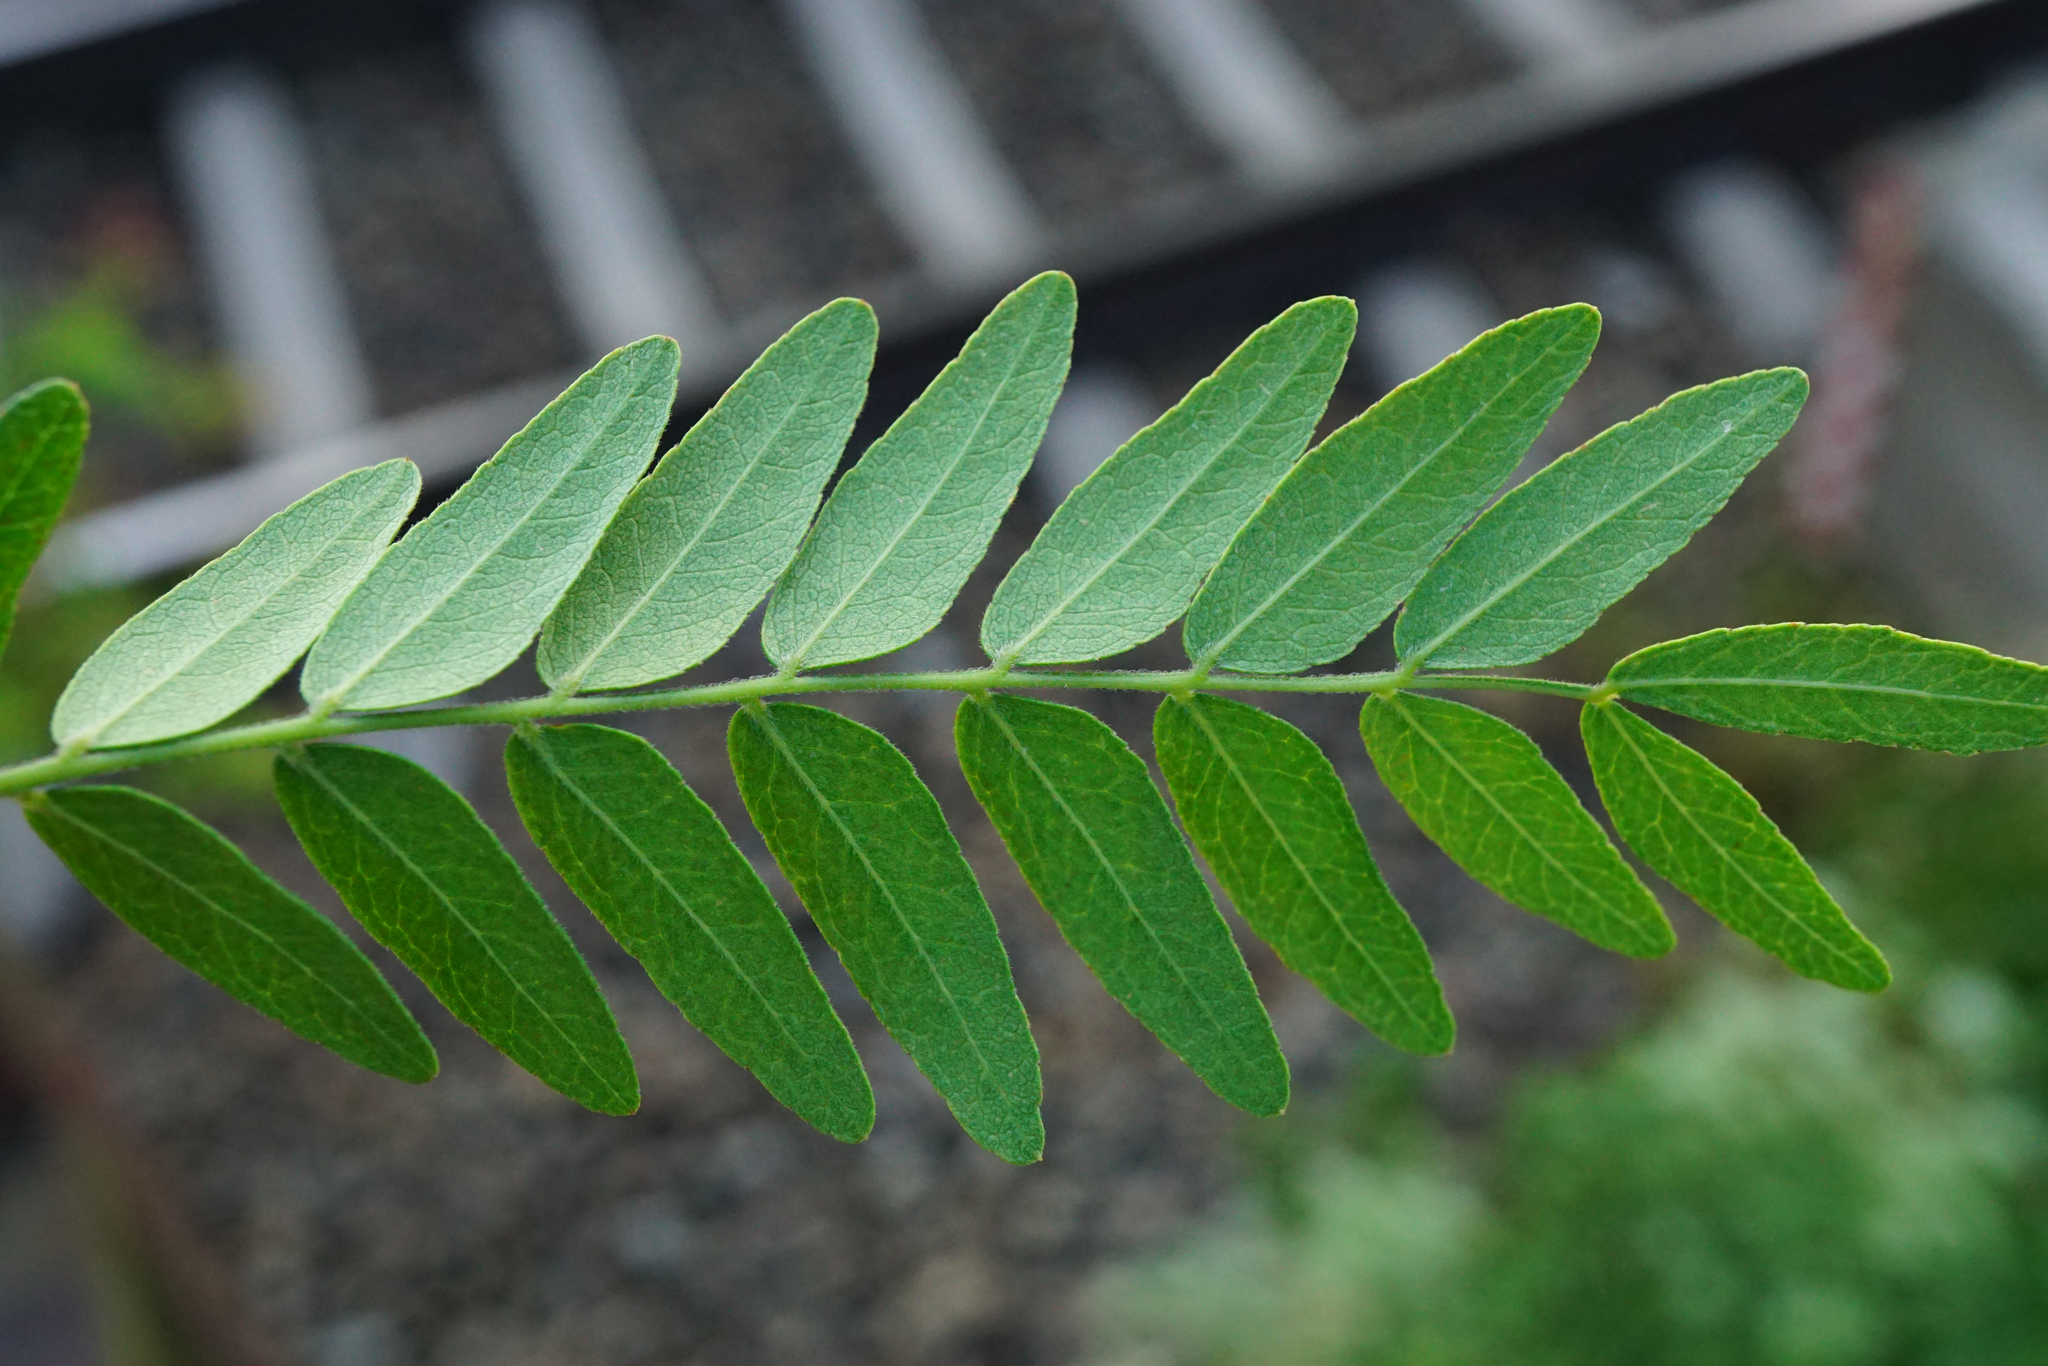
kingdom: Plantae
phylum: Tracheophyta
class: Magnoliopsida
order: Fabales
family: Fabaceae
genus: Gleditsia
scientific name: Gleditsia triacanthos
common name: Common honeylocust
